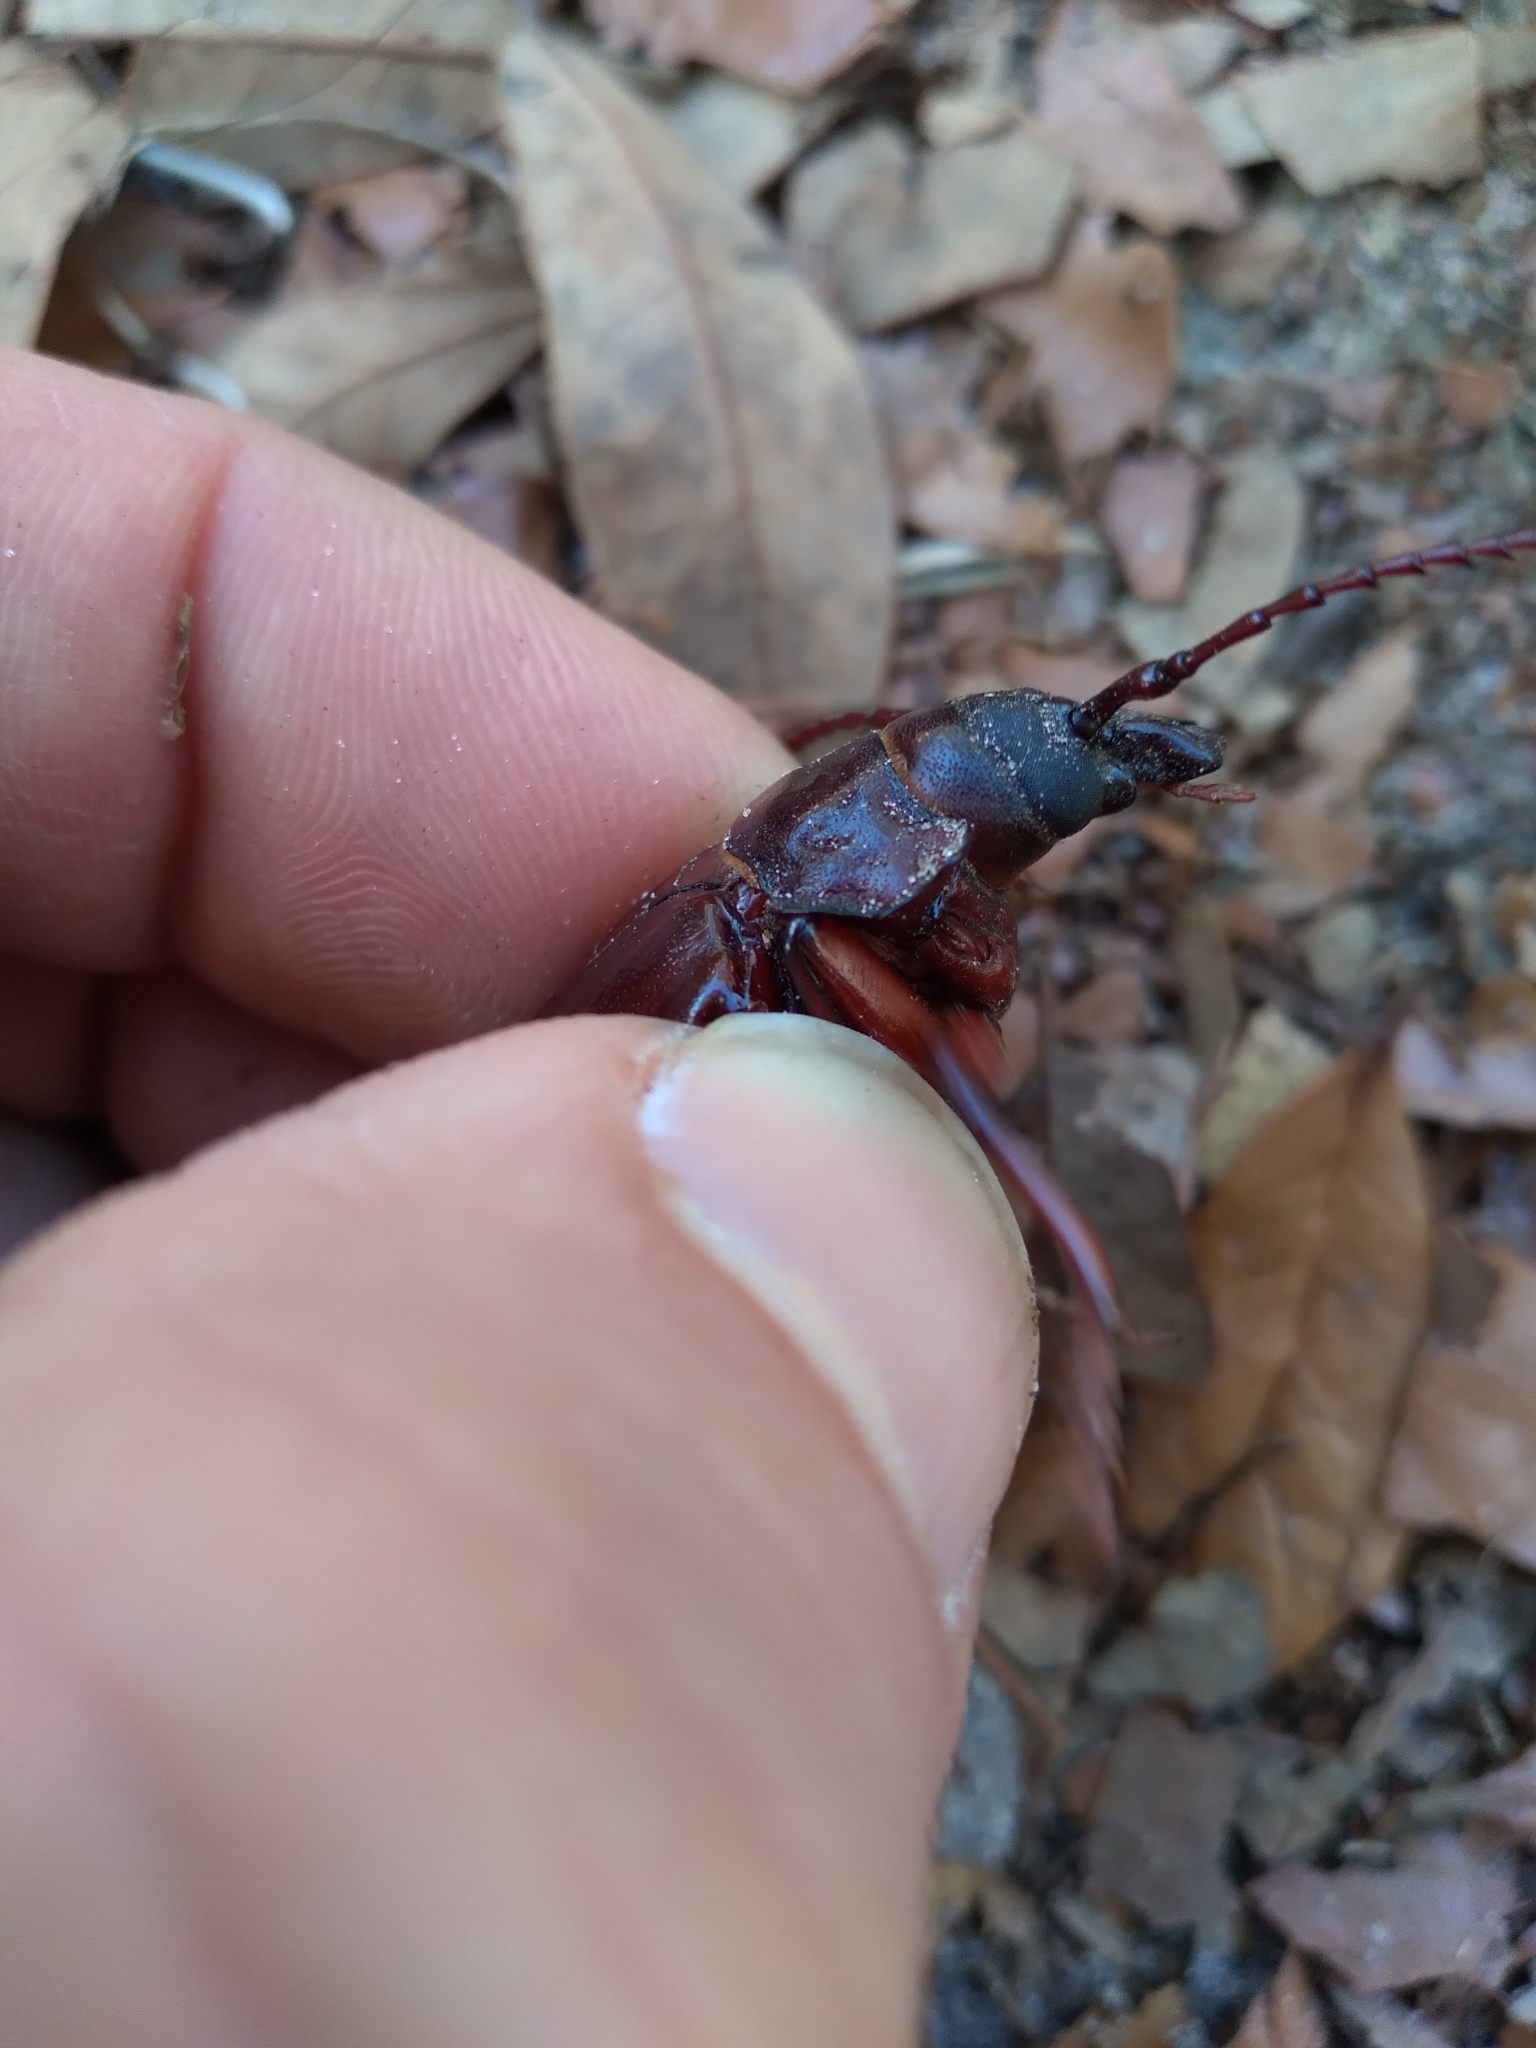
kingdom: Animalia
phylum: Arthropoda
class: Insecta
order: Coleoptera
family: Cerambycidae
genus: Prionus
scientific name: Prionus imbricornis
